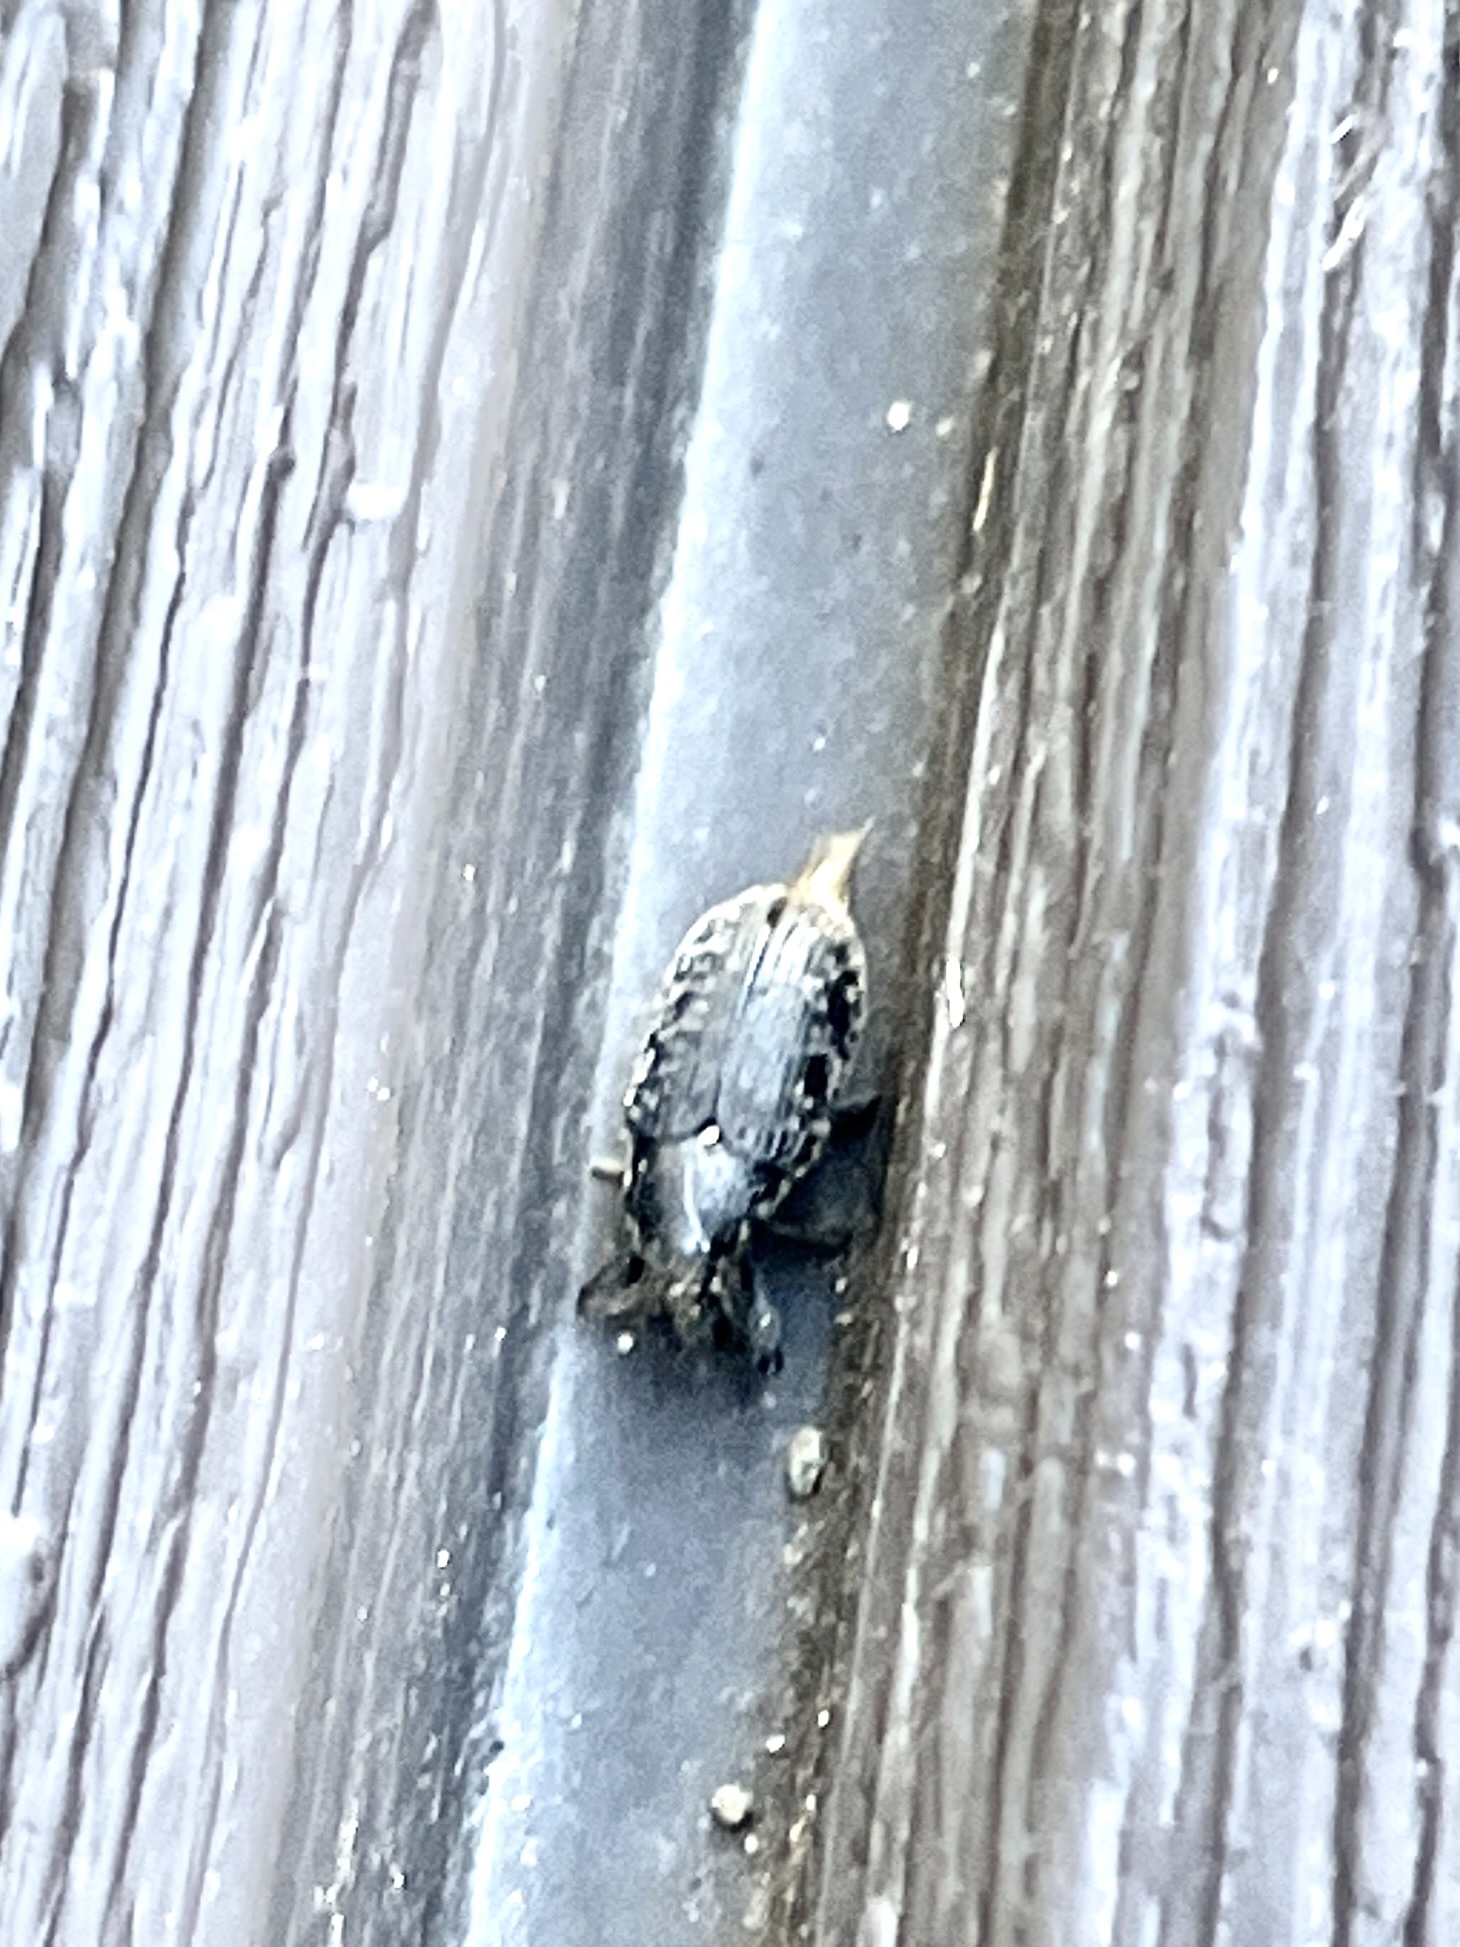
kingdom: Animalia
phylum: Arthropoda
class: Insecta
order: Coleoptera
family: Curculionidae
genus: Larinus
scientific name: Larinus carlinae
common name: Weevil
